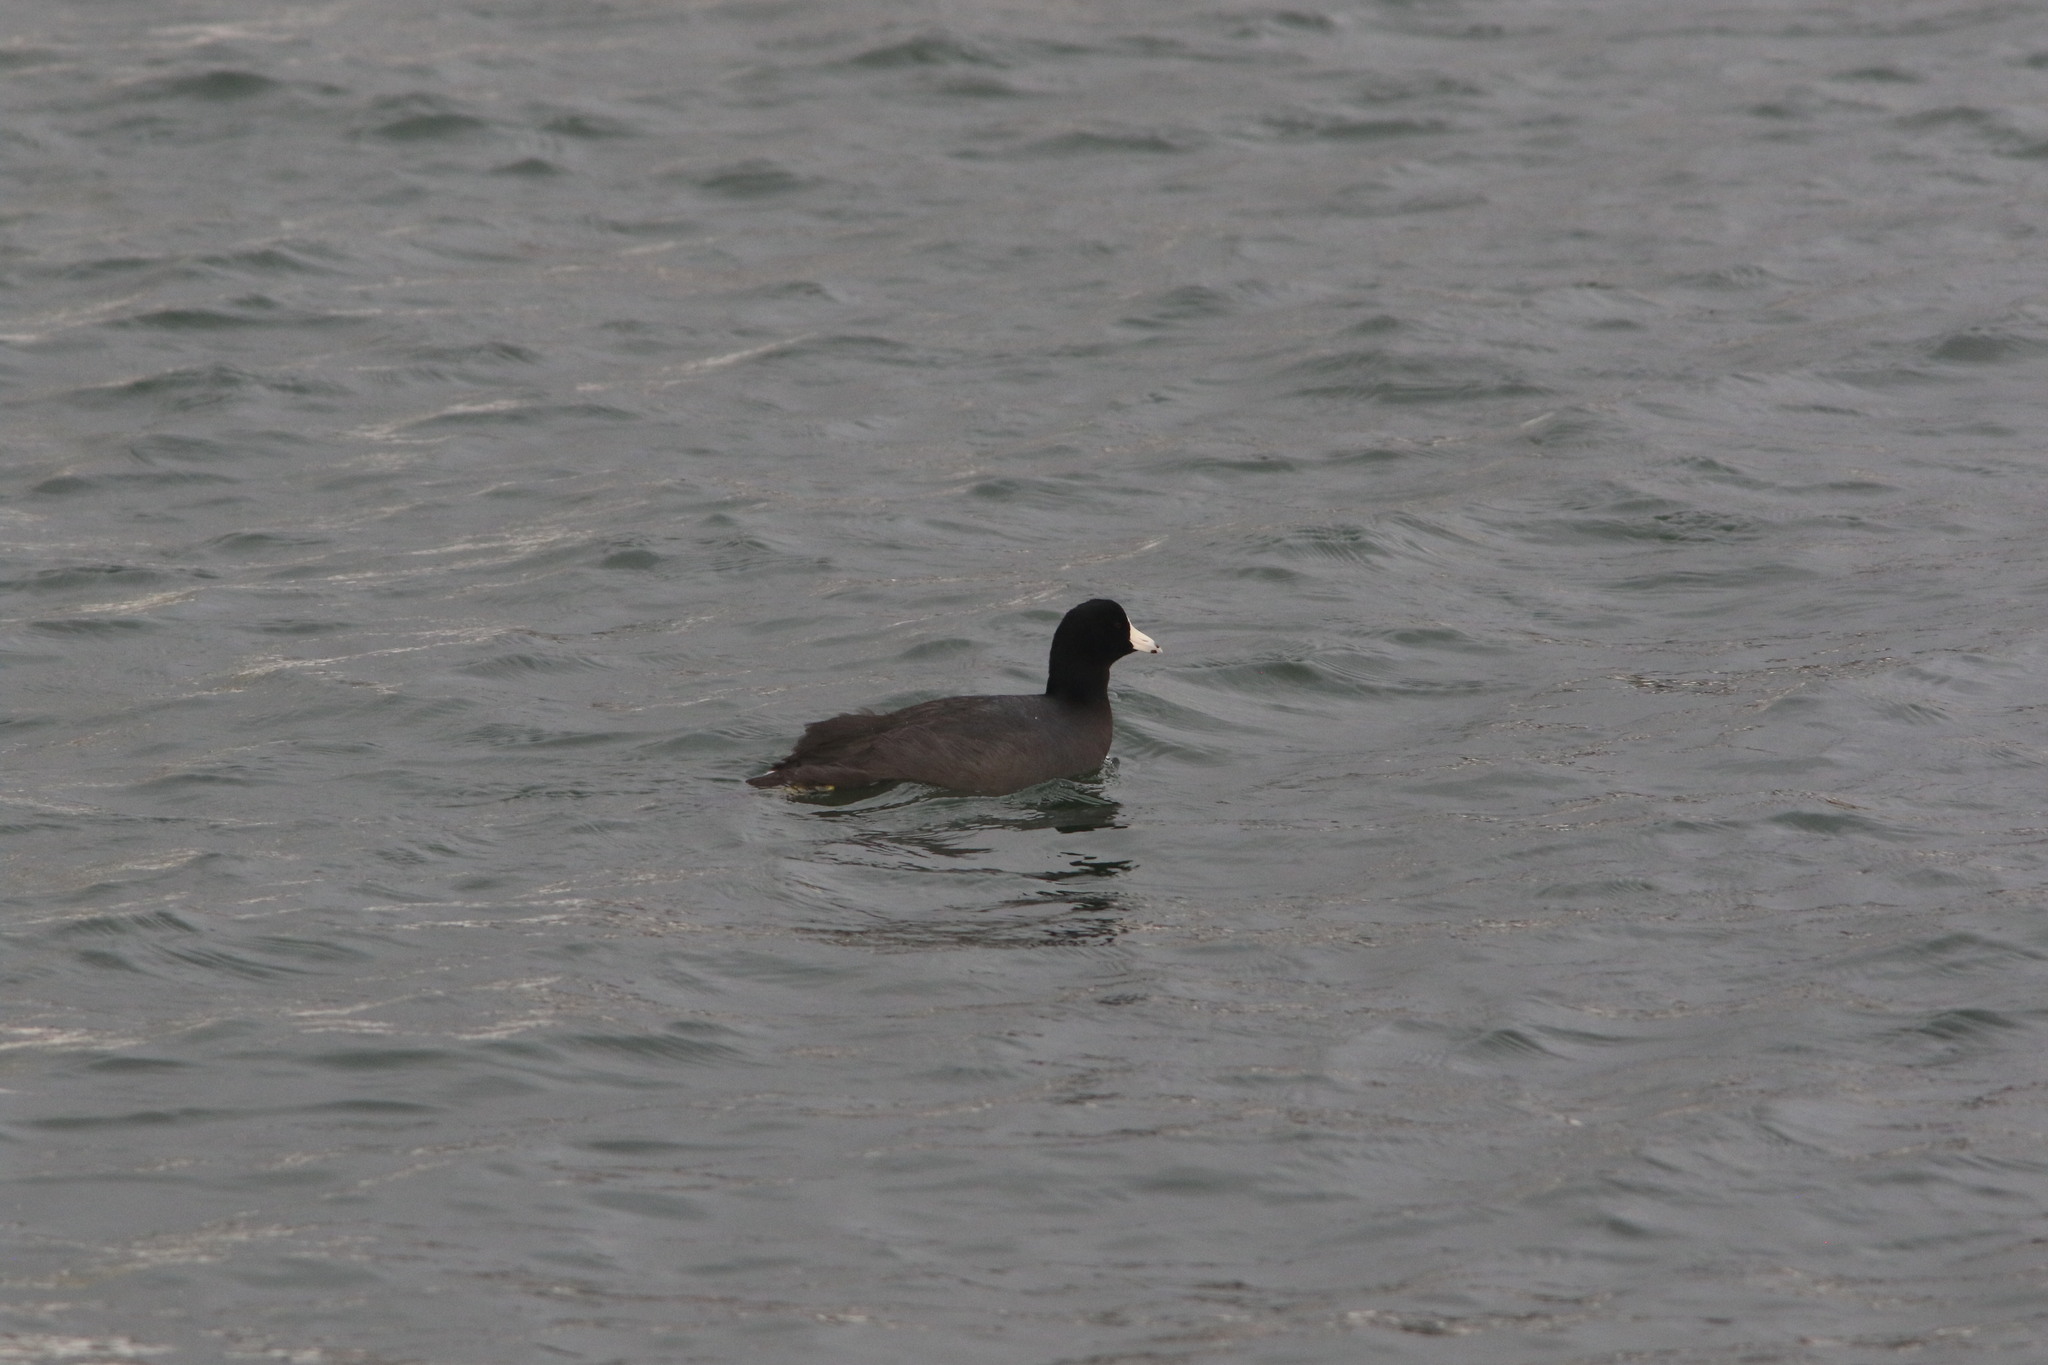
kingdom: Animalia
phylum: Chordata
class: Aves
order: Gruiformes
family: Rallidae
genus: Fulica
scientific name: Fulica americana
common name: American coot
